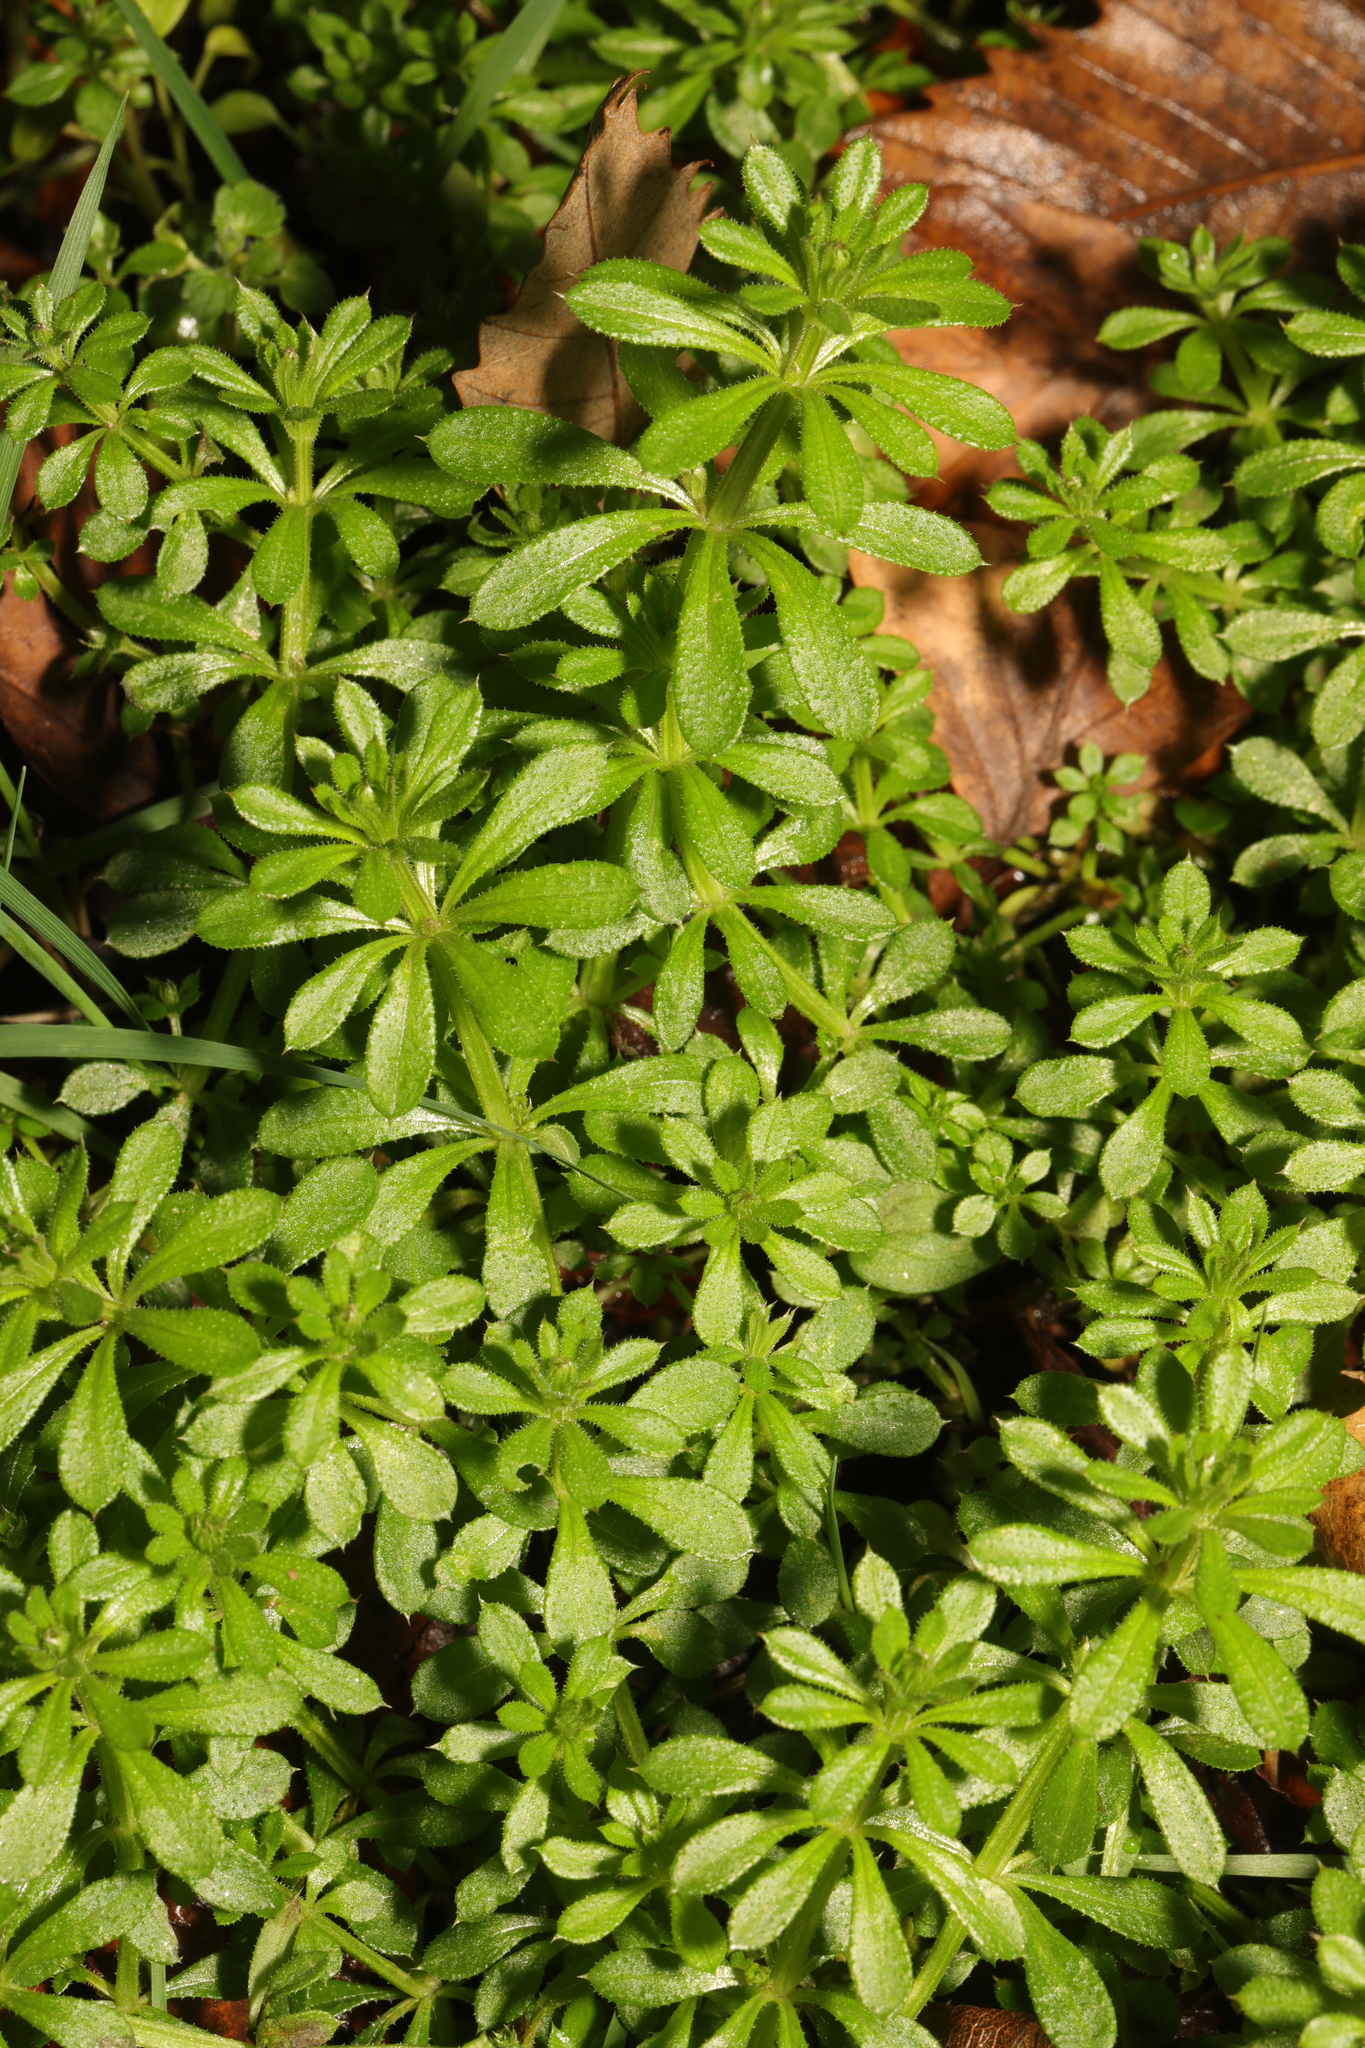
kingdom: Plantae
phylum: Tracheophyta
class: Magnoliopsida
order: Gentianales
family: Rubiaceae
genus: Galium
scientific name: Galium aparine
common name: Cleavers
